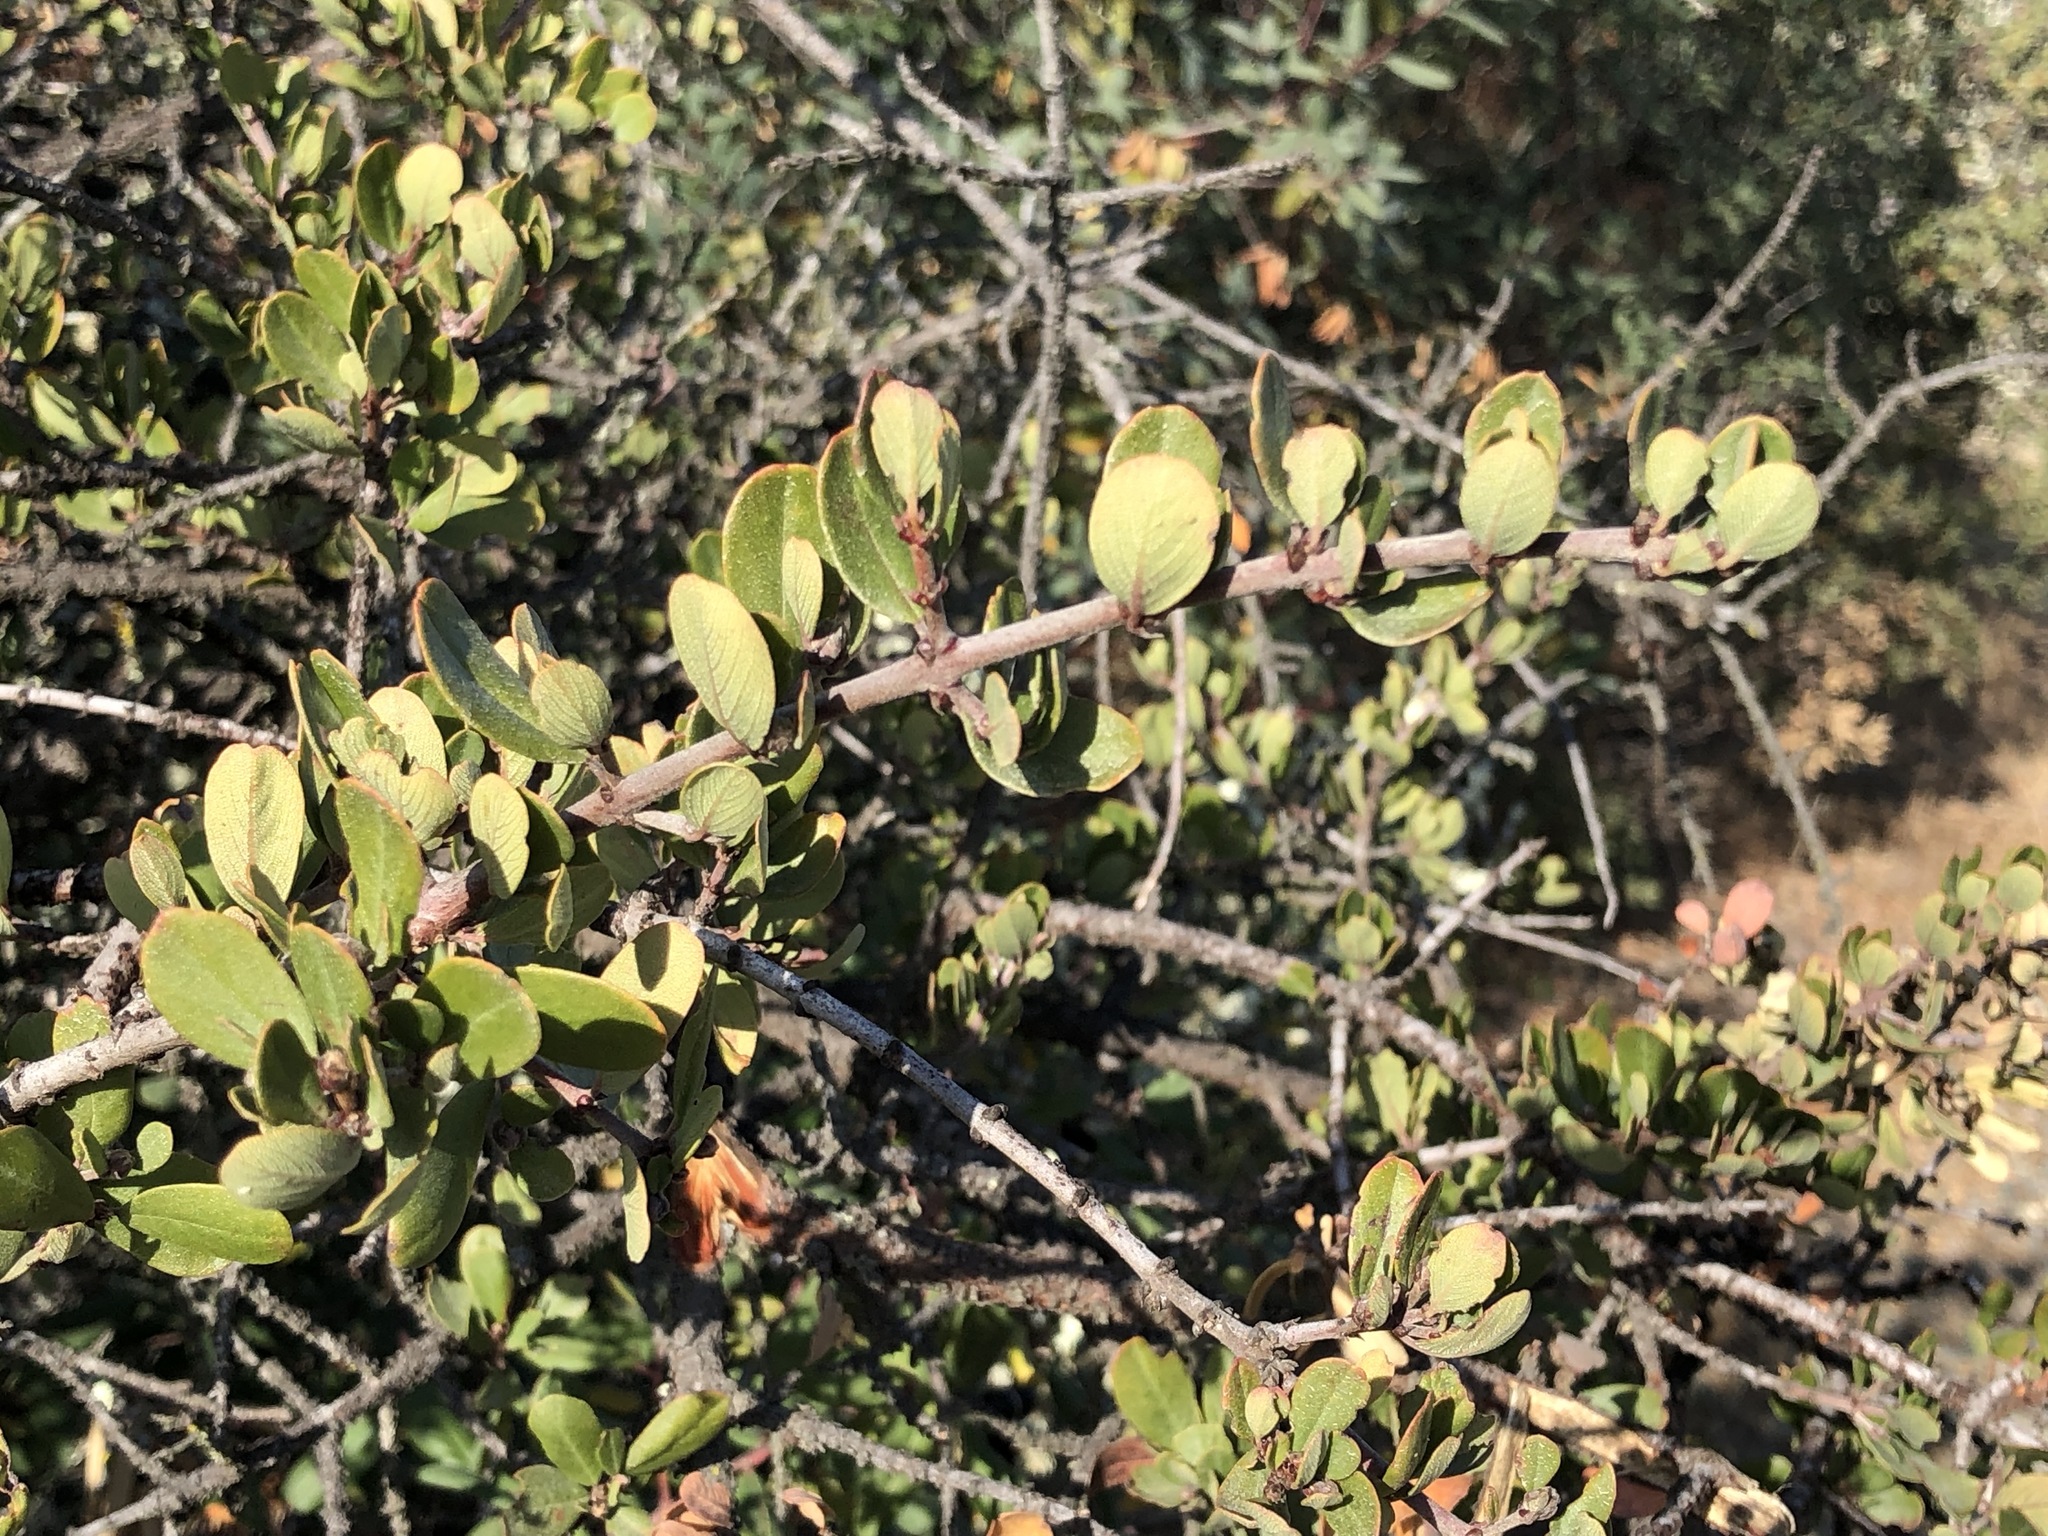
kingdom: Plantae
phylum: Tracheophyta
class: Magnoliopsida
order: Rosales
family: Rhamnaceae
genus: Ceanothus
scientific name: Ceanothus cuneatus
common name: Cuneate ceanothus
